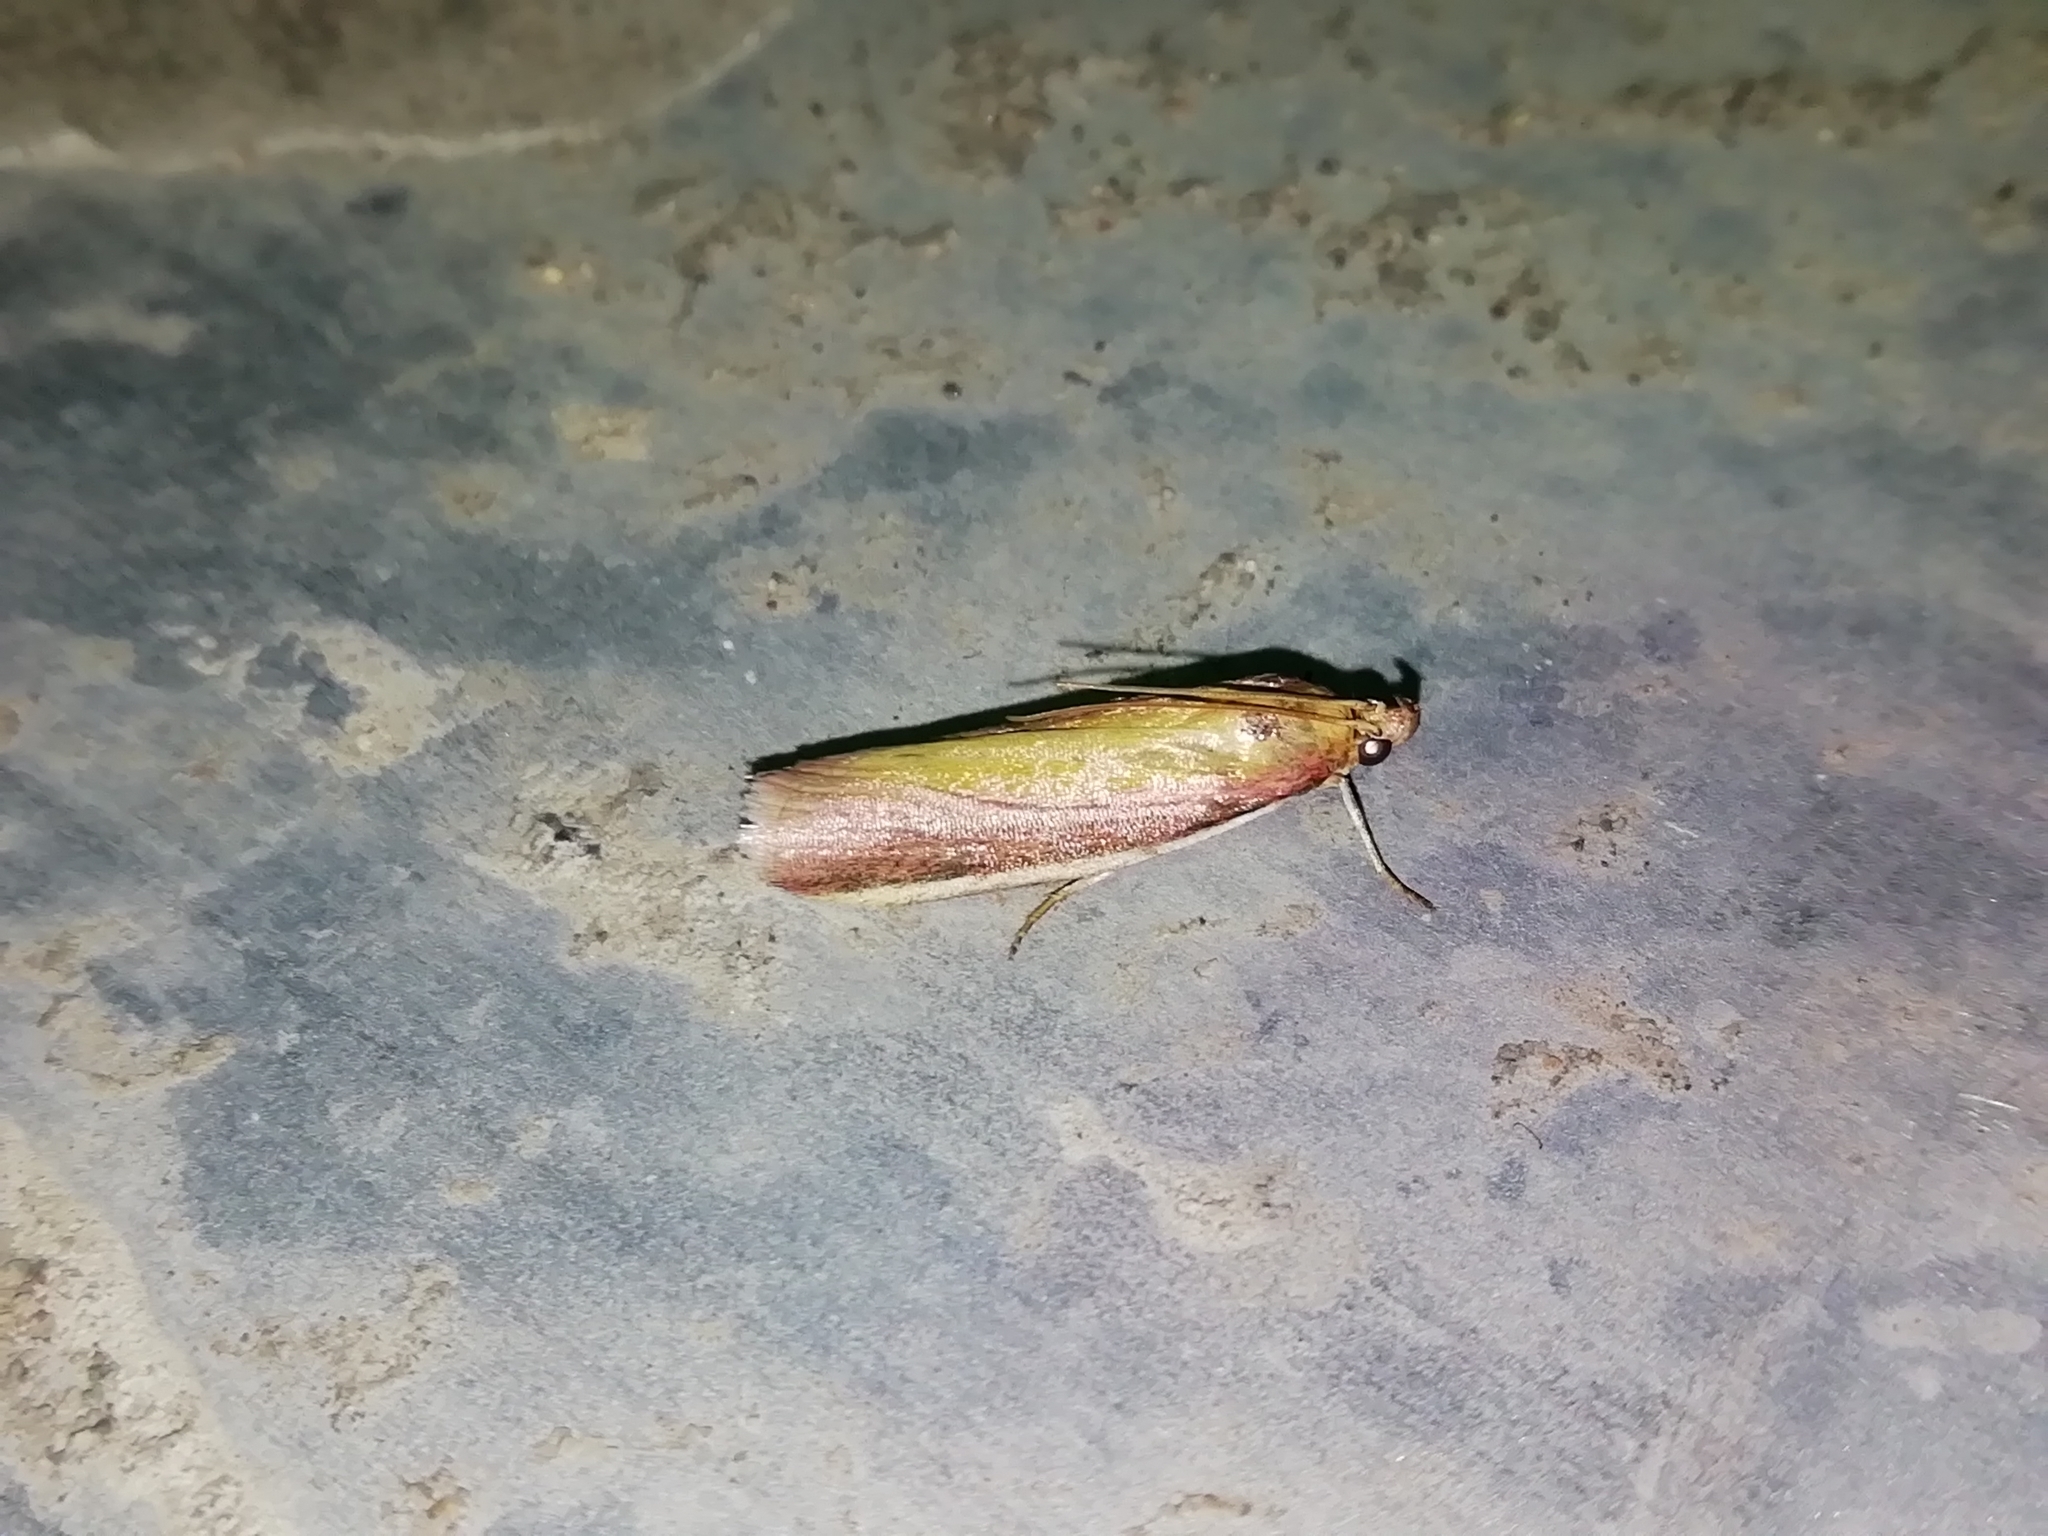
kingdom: Animalia
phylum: Arthropoda
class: Insecta
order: Lepidoptera
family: Pyralidae
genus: Oncocera
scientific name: Oncocera semirubella
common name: Rosy-striped knot-horn
